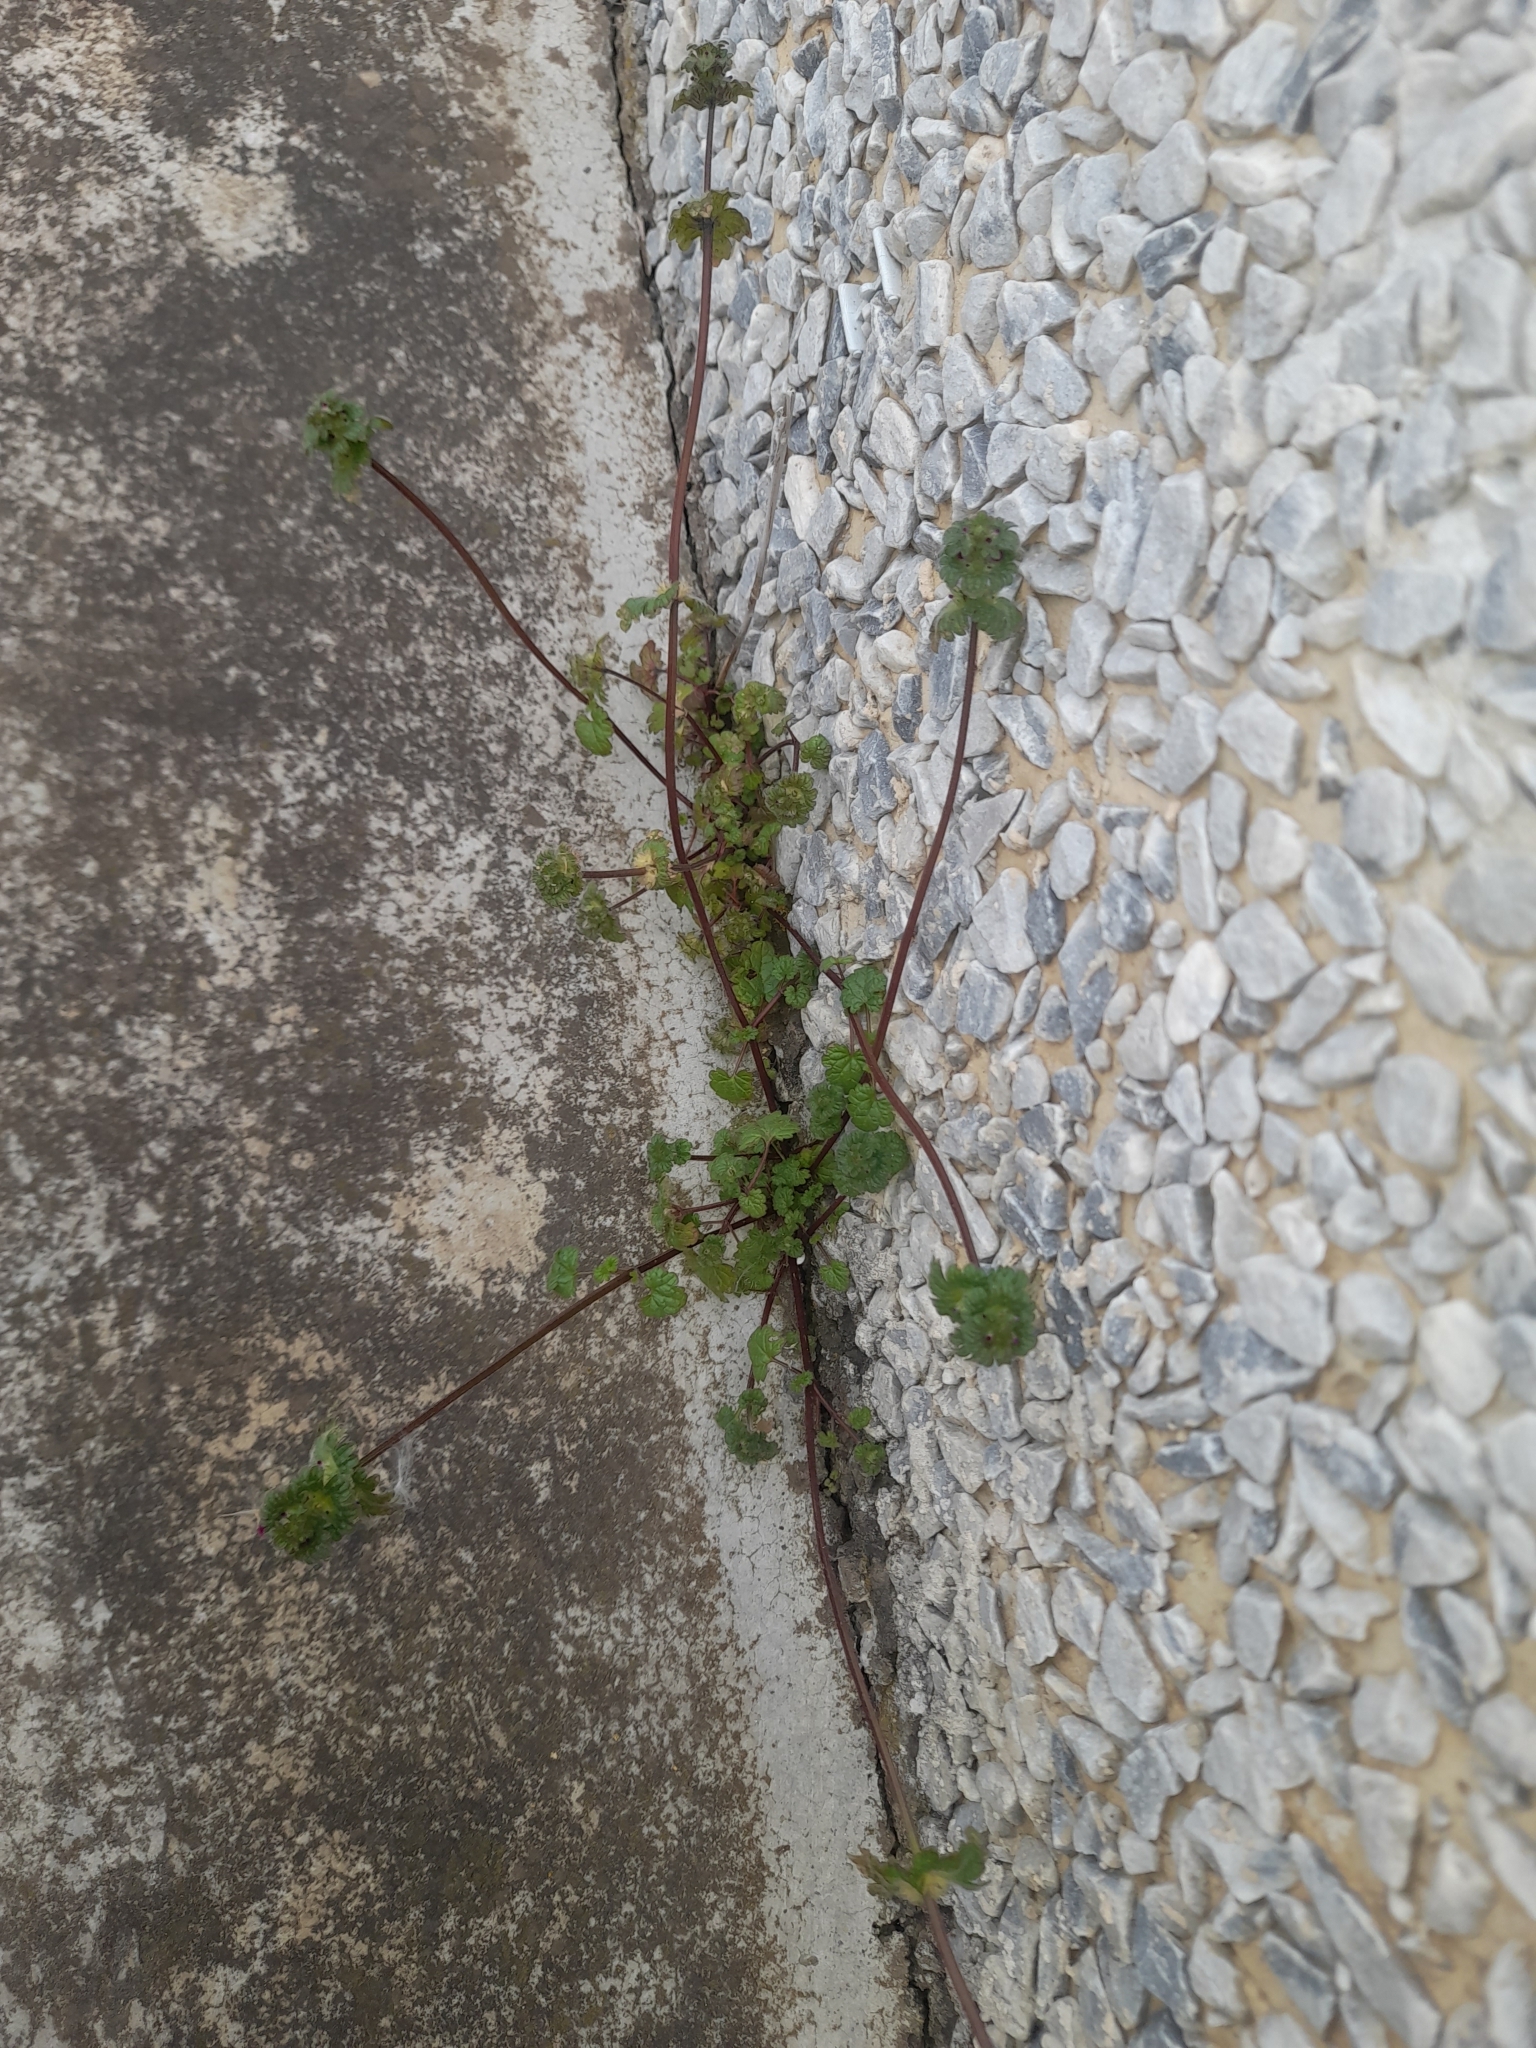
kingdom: Plantae
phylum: Tracheophyta
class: Magnoliopsida
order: Lamiales
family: Lamiaceae
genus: Lamium
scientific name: Lamium amplexicaule
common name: Henbit dead-nettle
